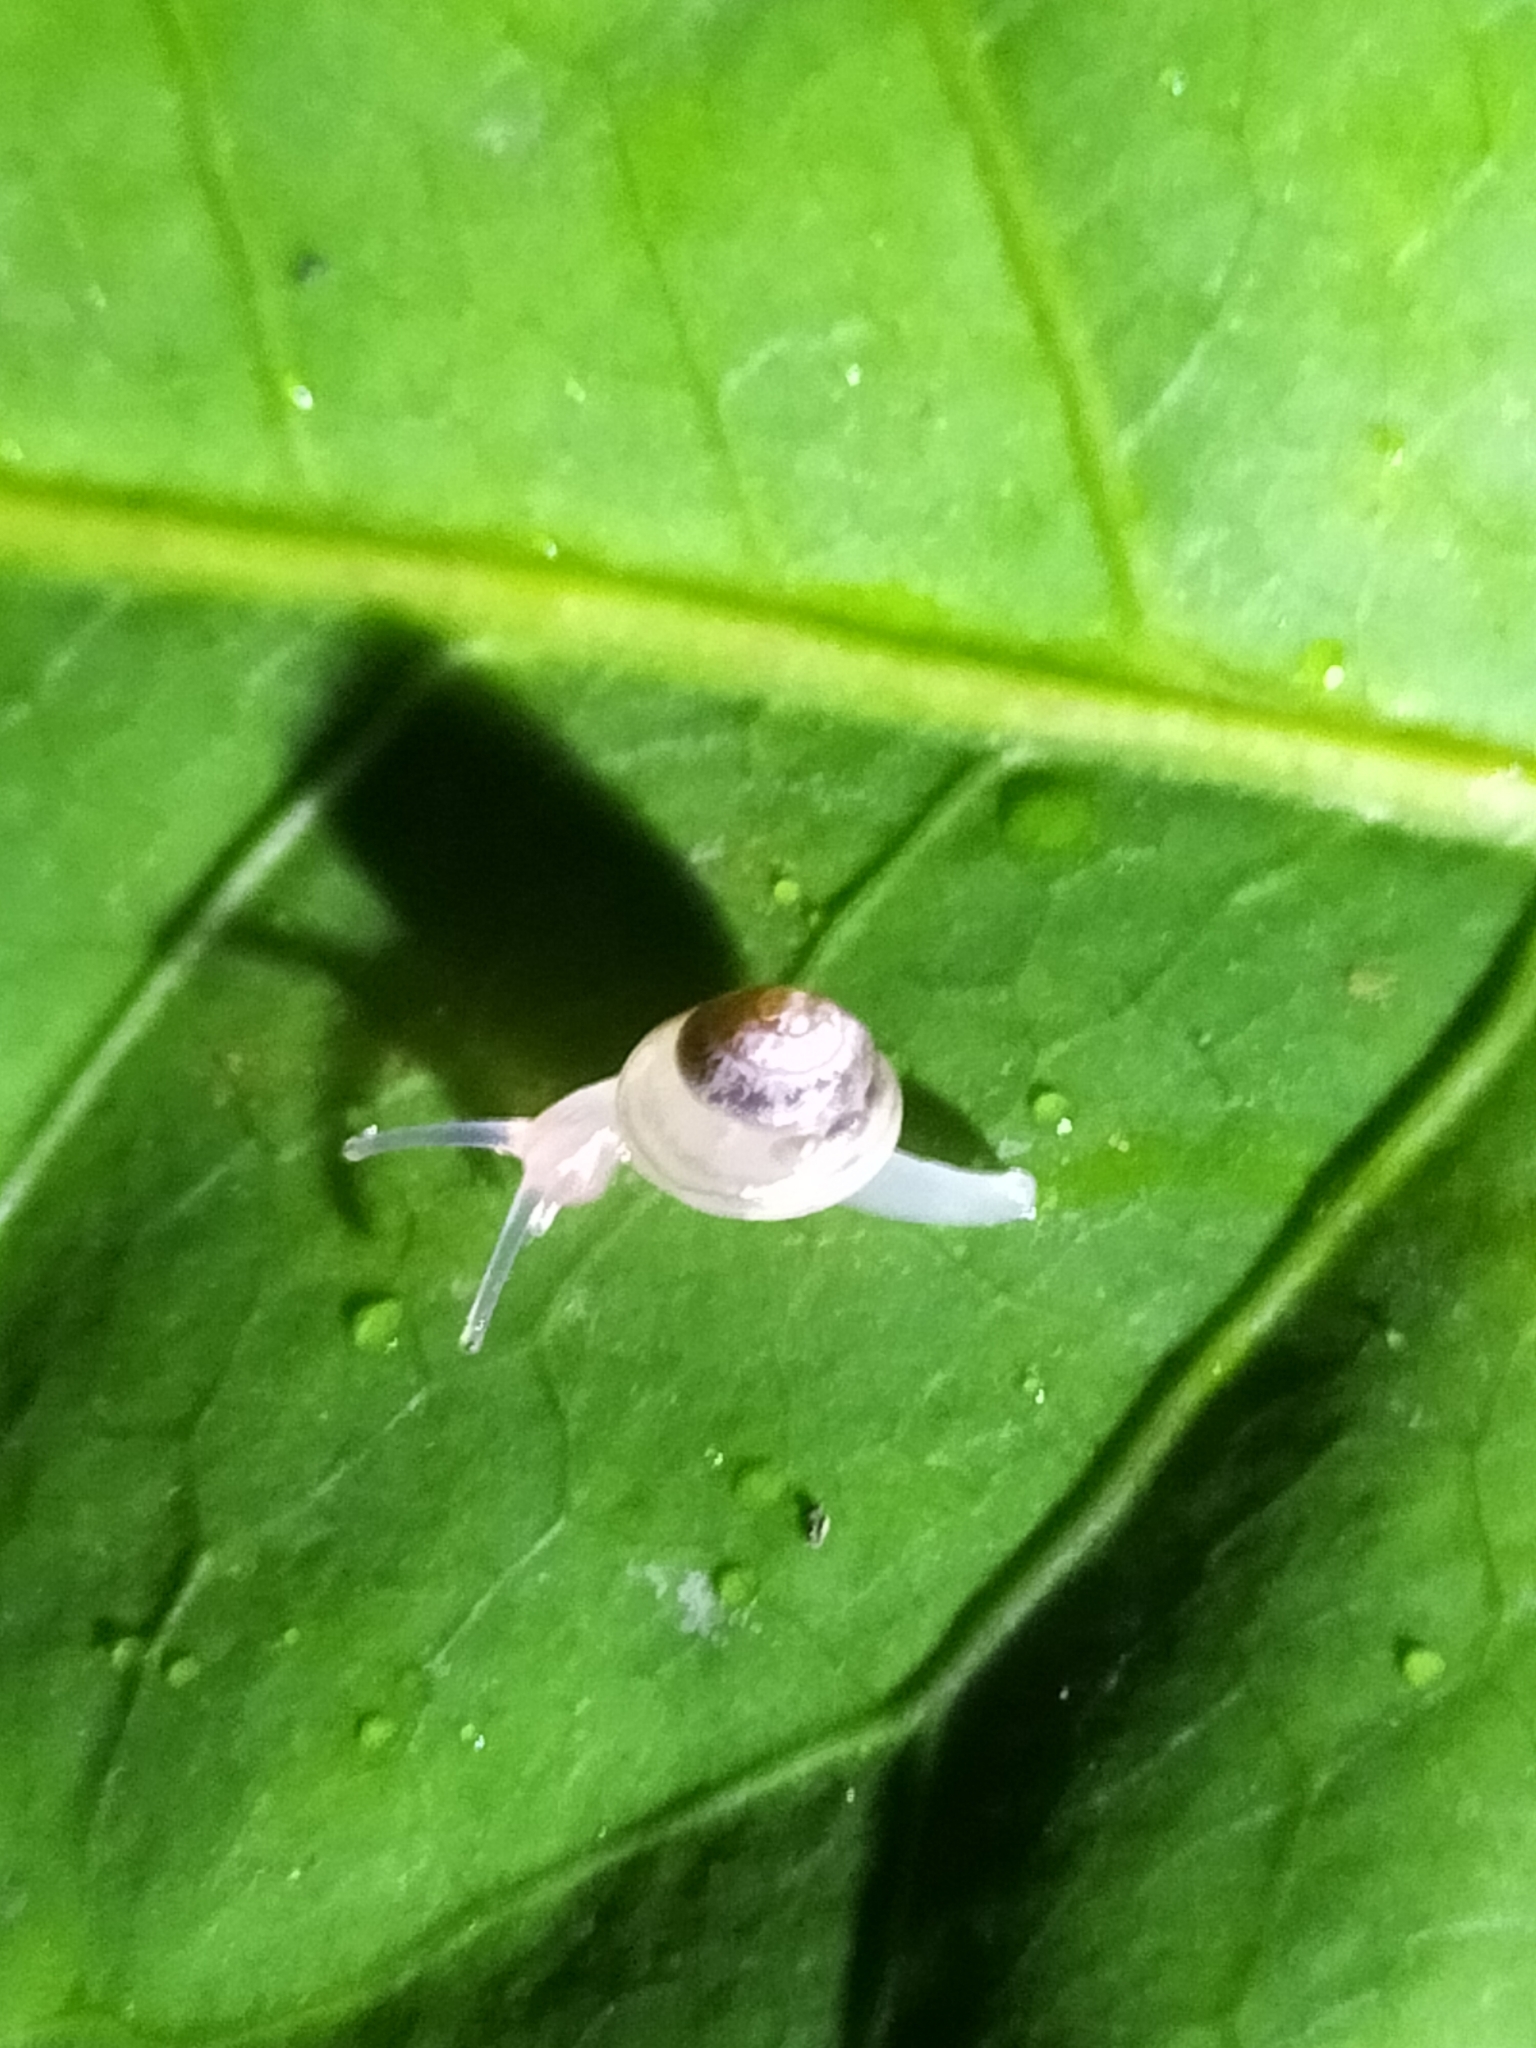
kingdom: Animalia
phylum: Mollusca
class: Gastropoda
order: Stylommatophora
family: Euconulidae
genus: Coneuplecta
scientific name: Coneuplecta pampini
